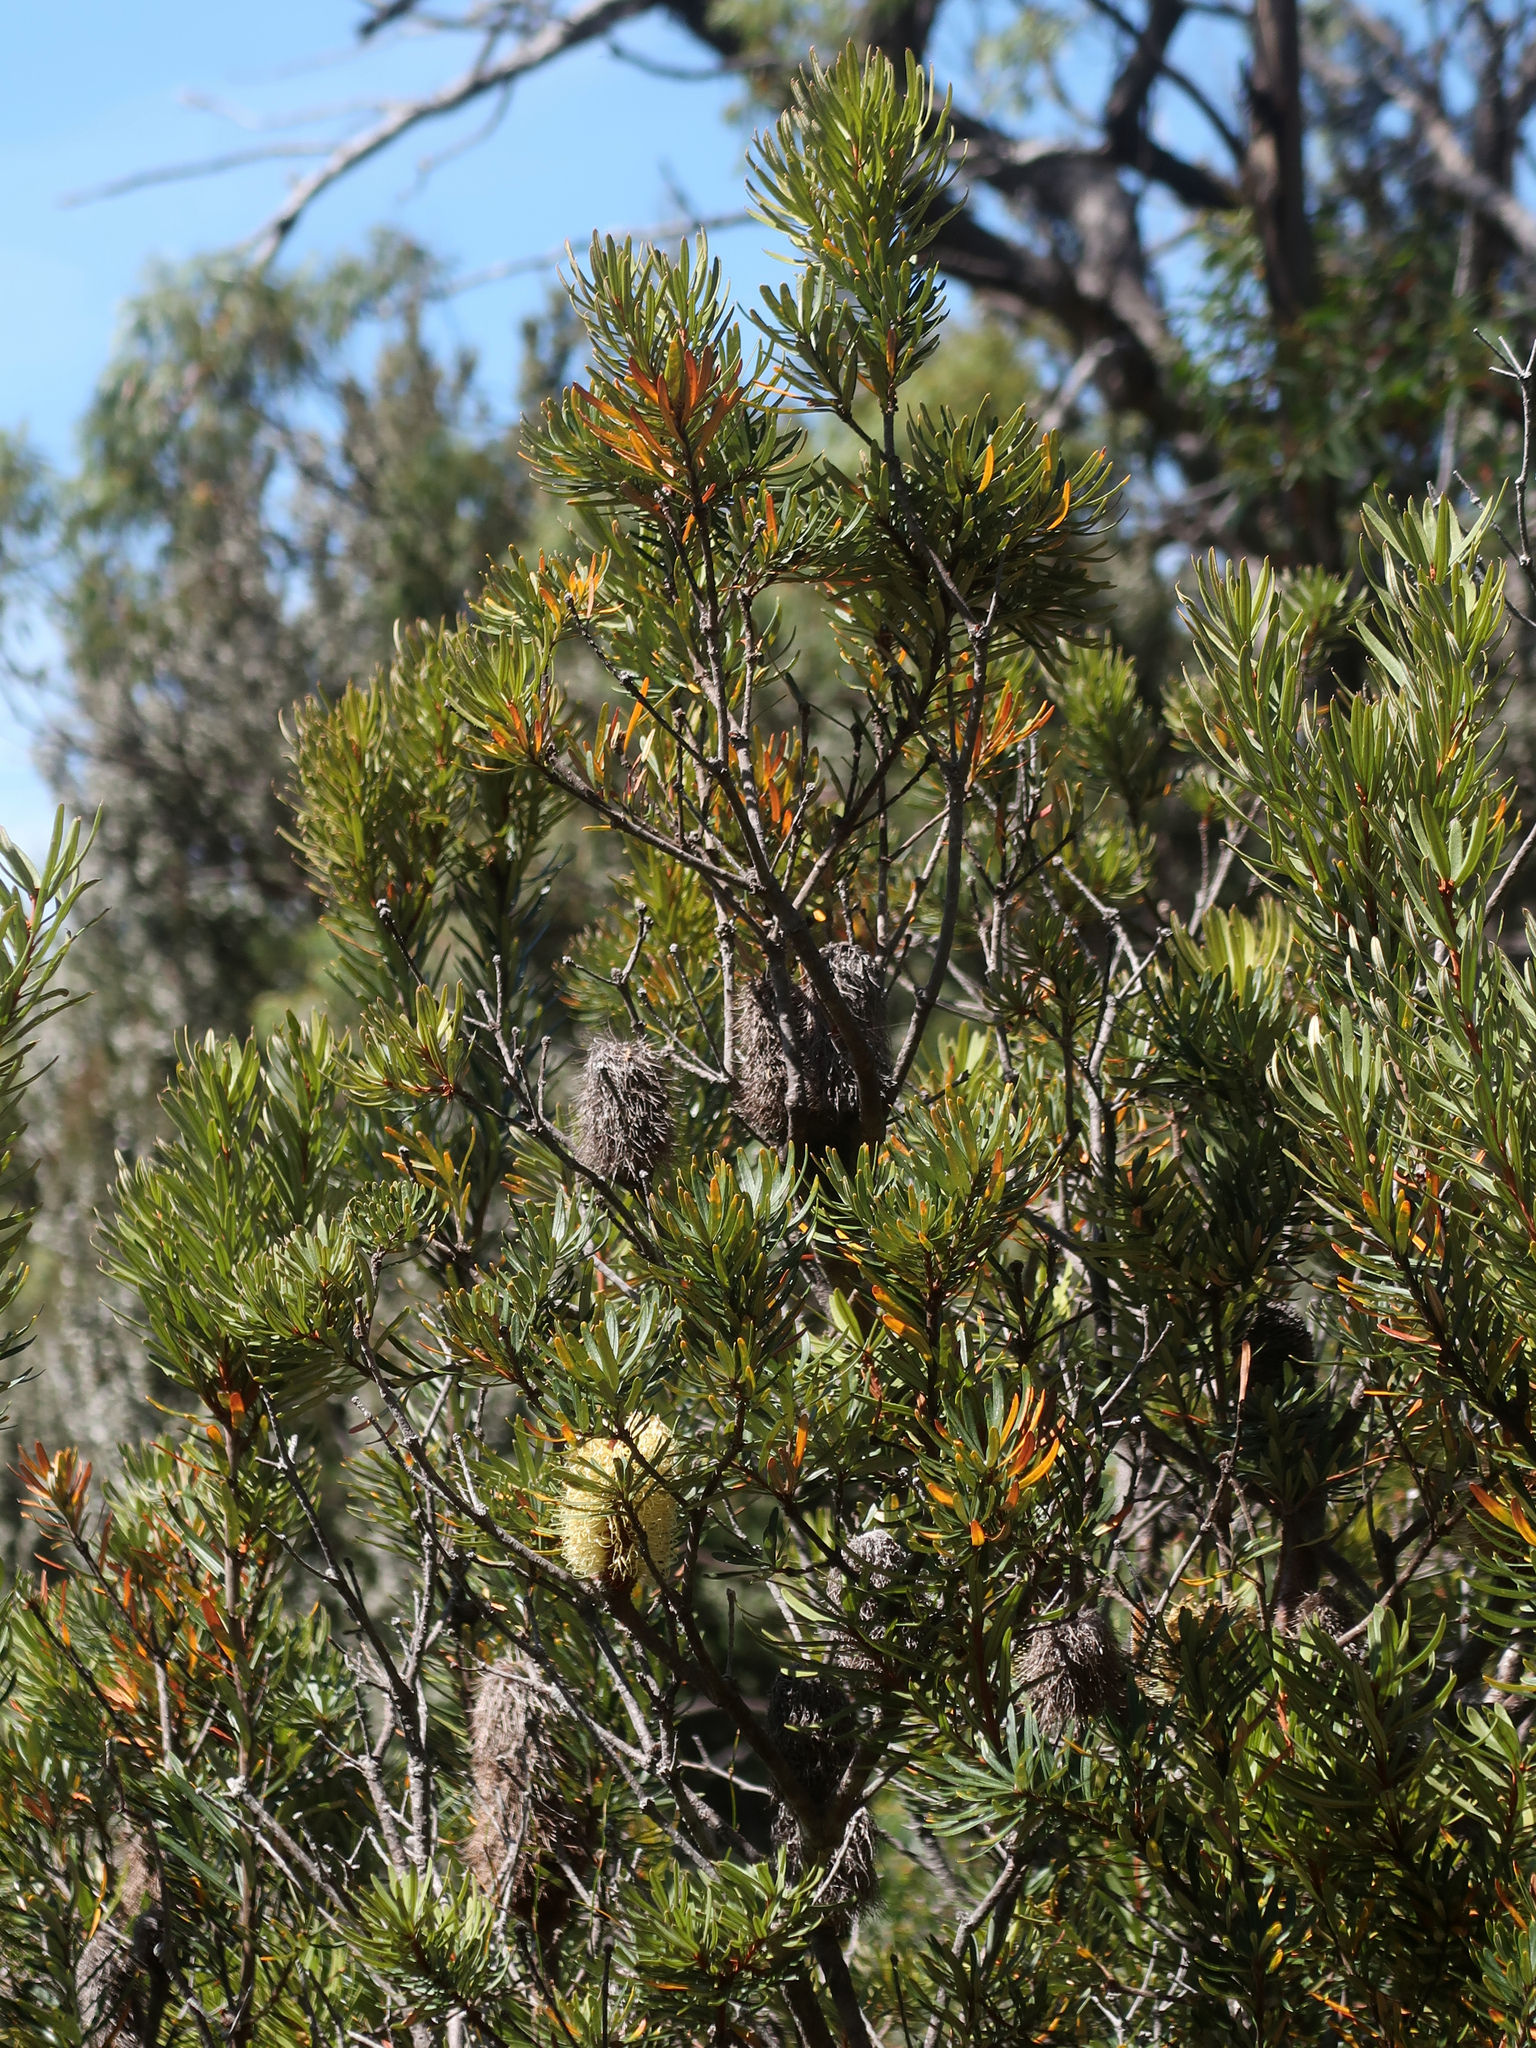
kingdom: Plantae
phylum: Tracheophyta
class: Magnoliopsida
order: Proteales
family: Proteaceae
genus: Banksia
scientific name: Banksia marginata
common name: Silver banksia
